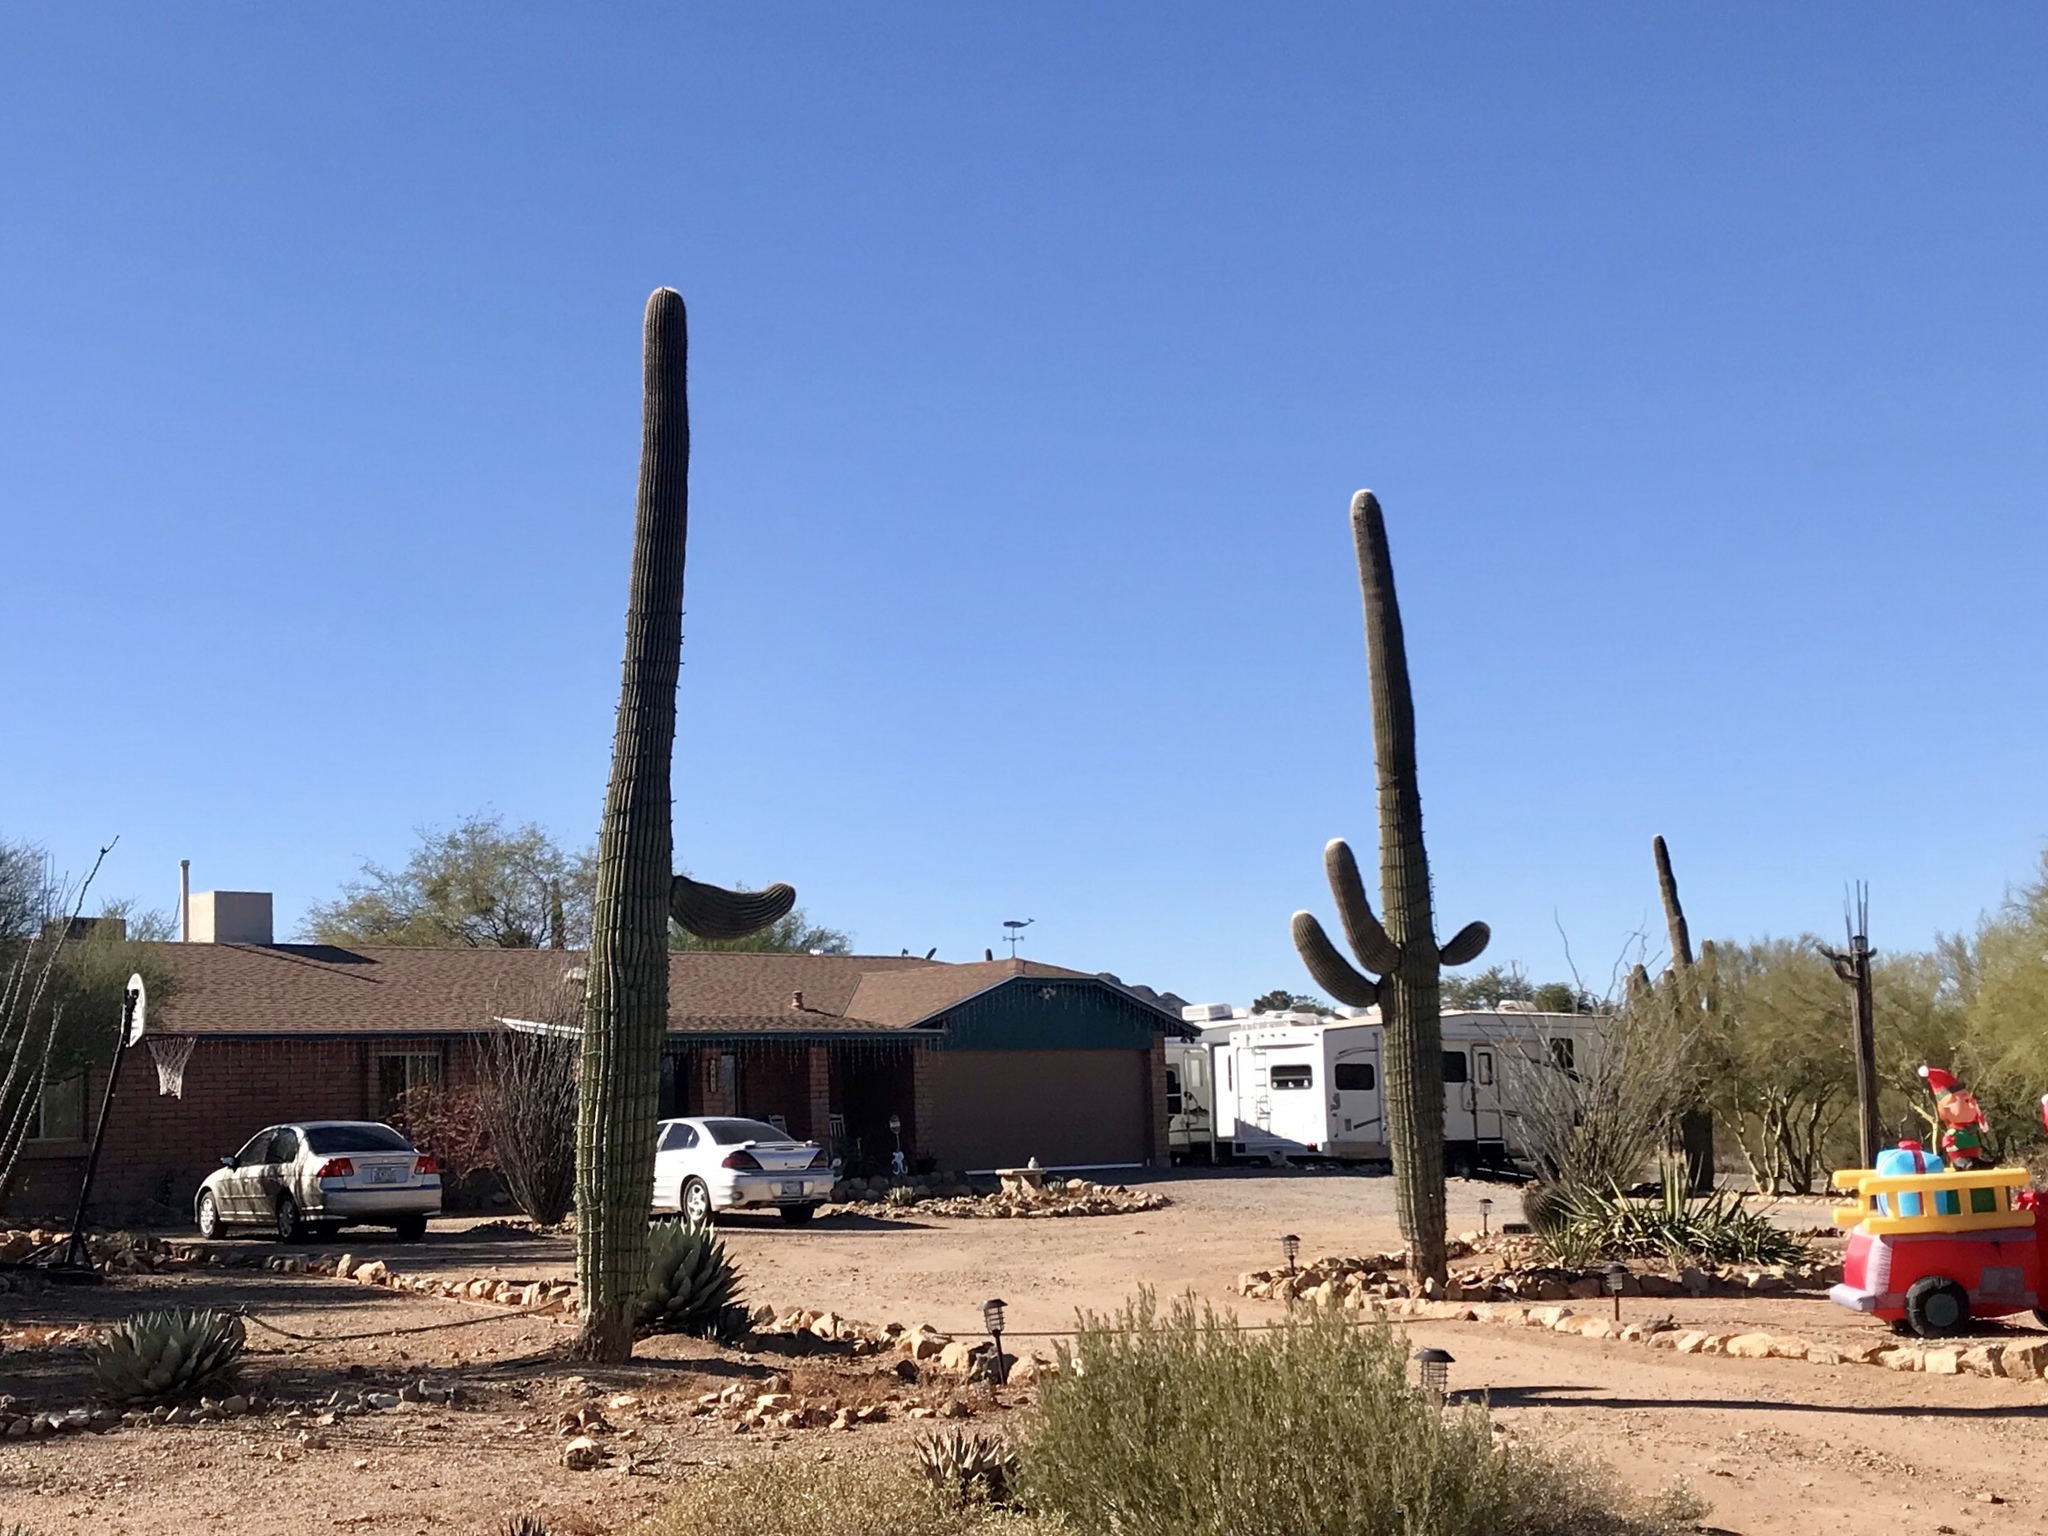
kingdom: Plantae
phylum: Tracheophyta
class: Magnoliopsida
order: Caryophyllales
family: Cactaceae
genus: Carnegiea
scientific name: Carnegiea gigantea
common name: Saguaro
